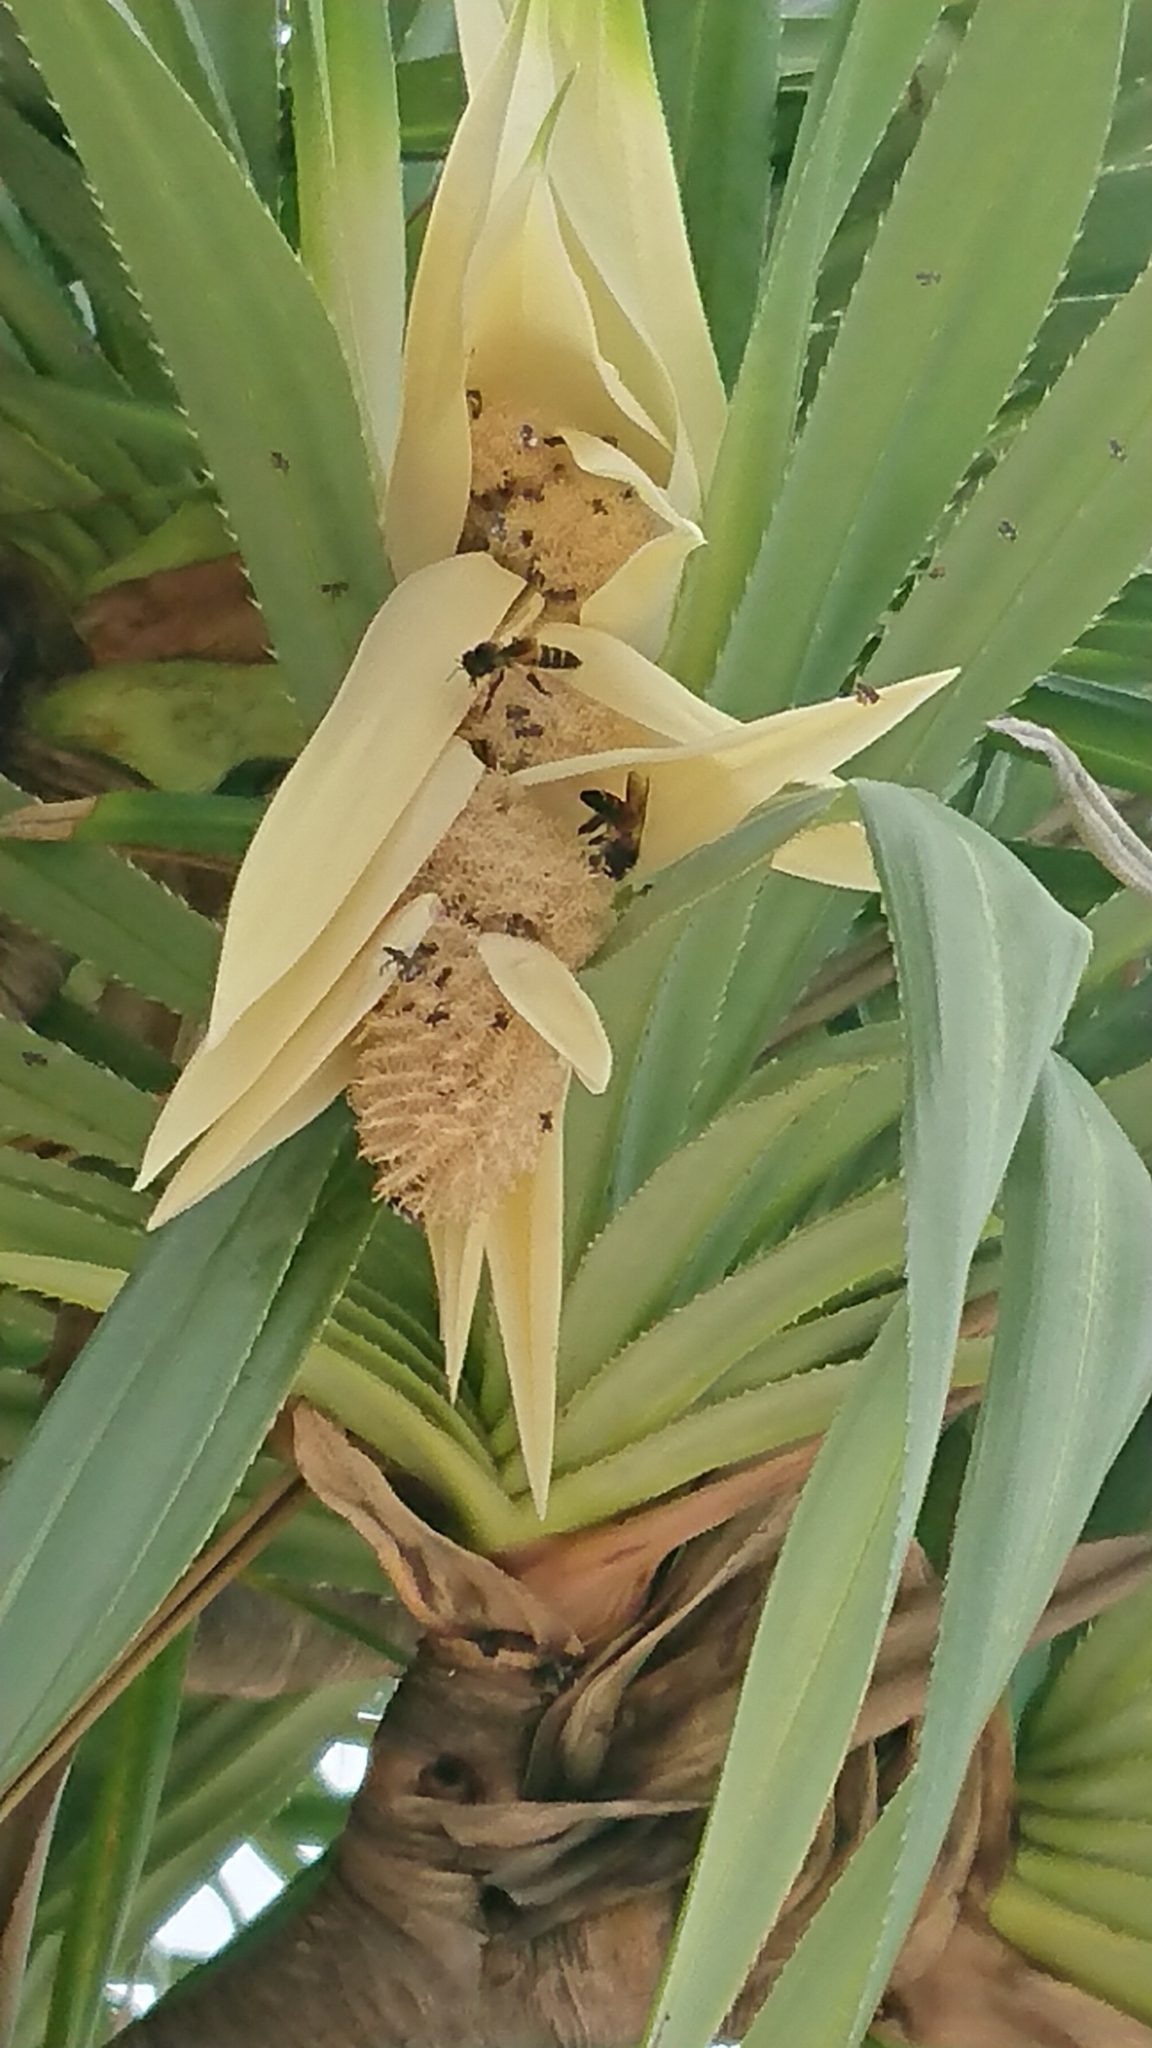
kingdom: Animalia
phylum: Arthropoda
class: Insecta
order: Hymenoptera
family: Apidae
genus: Apis
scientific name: Apis dorsata
